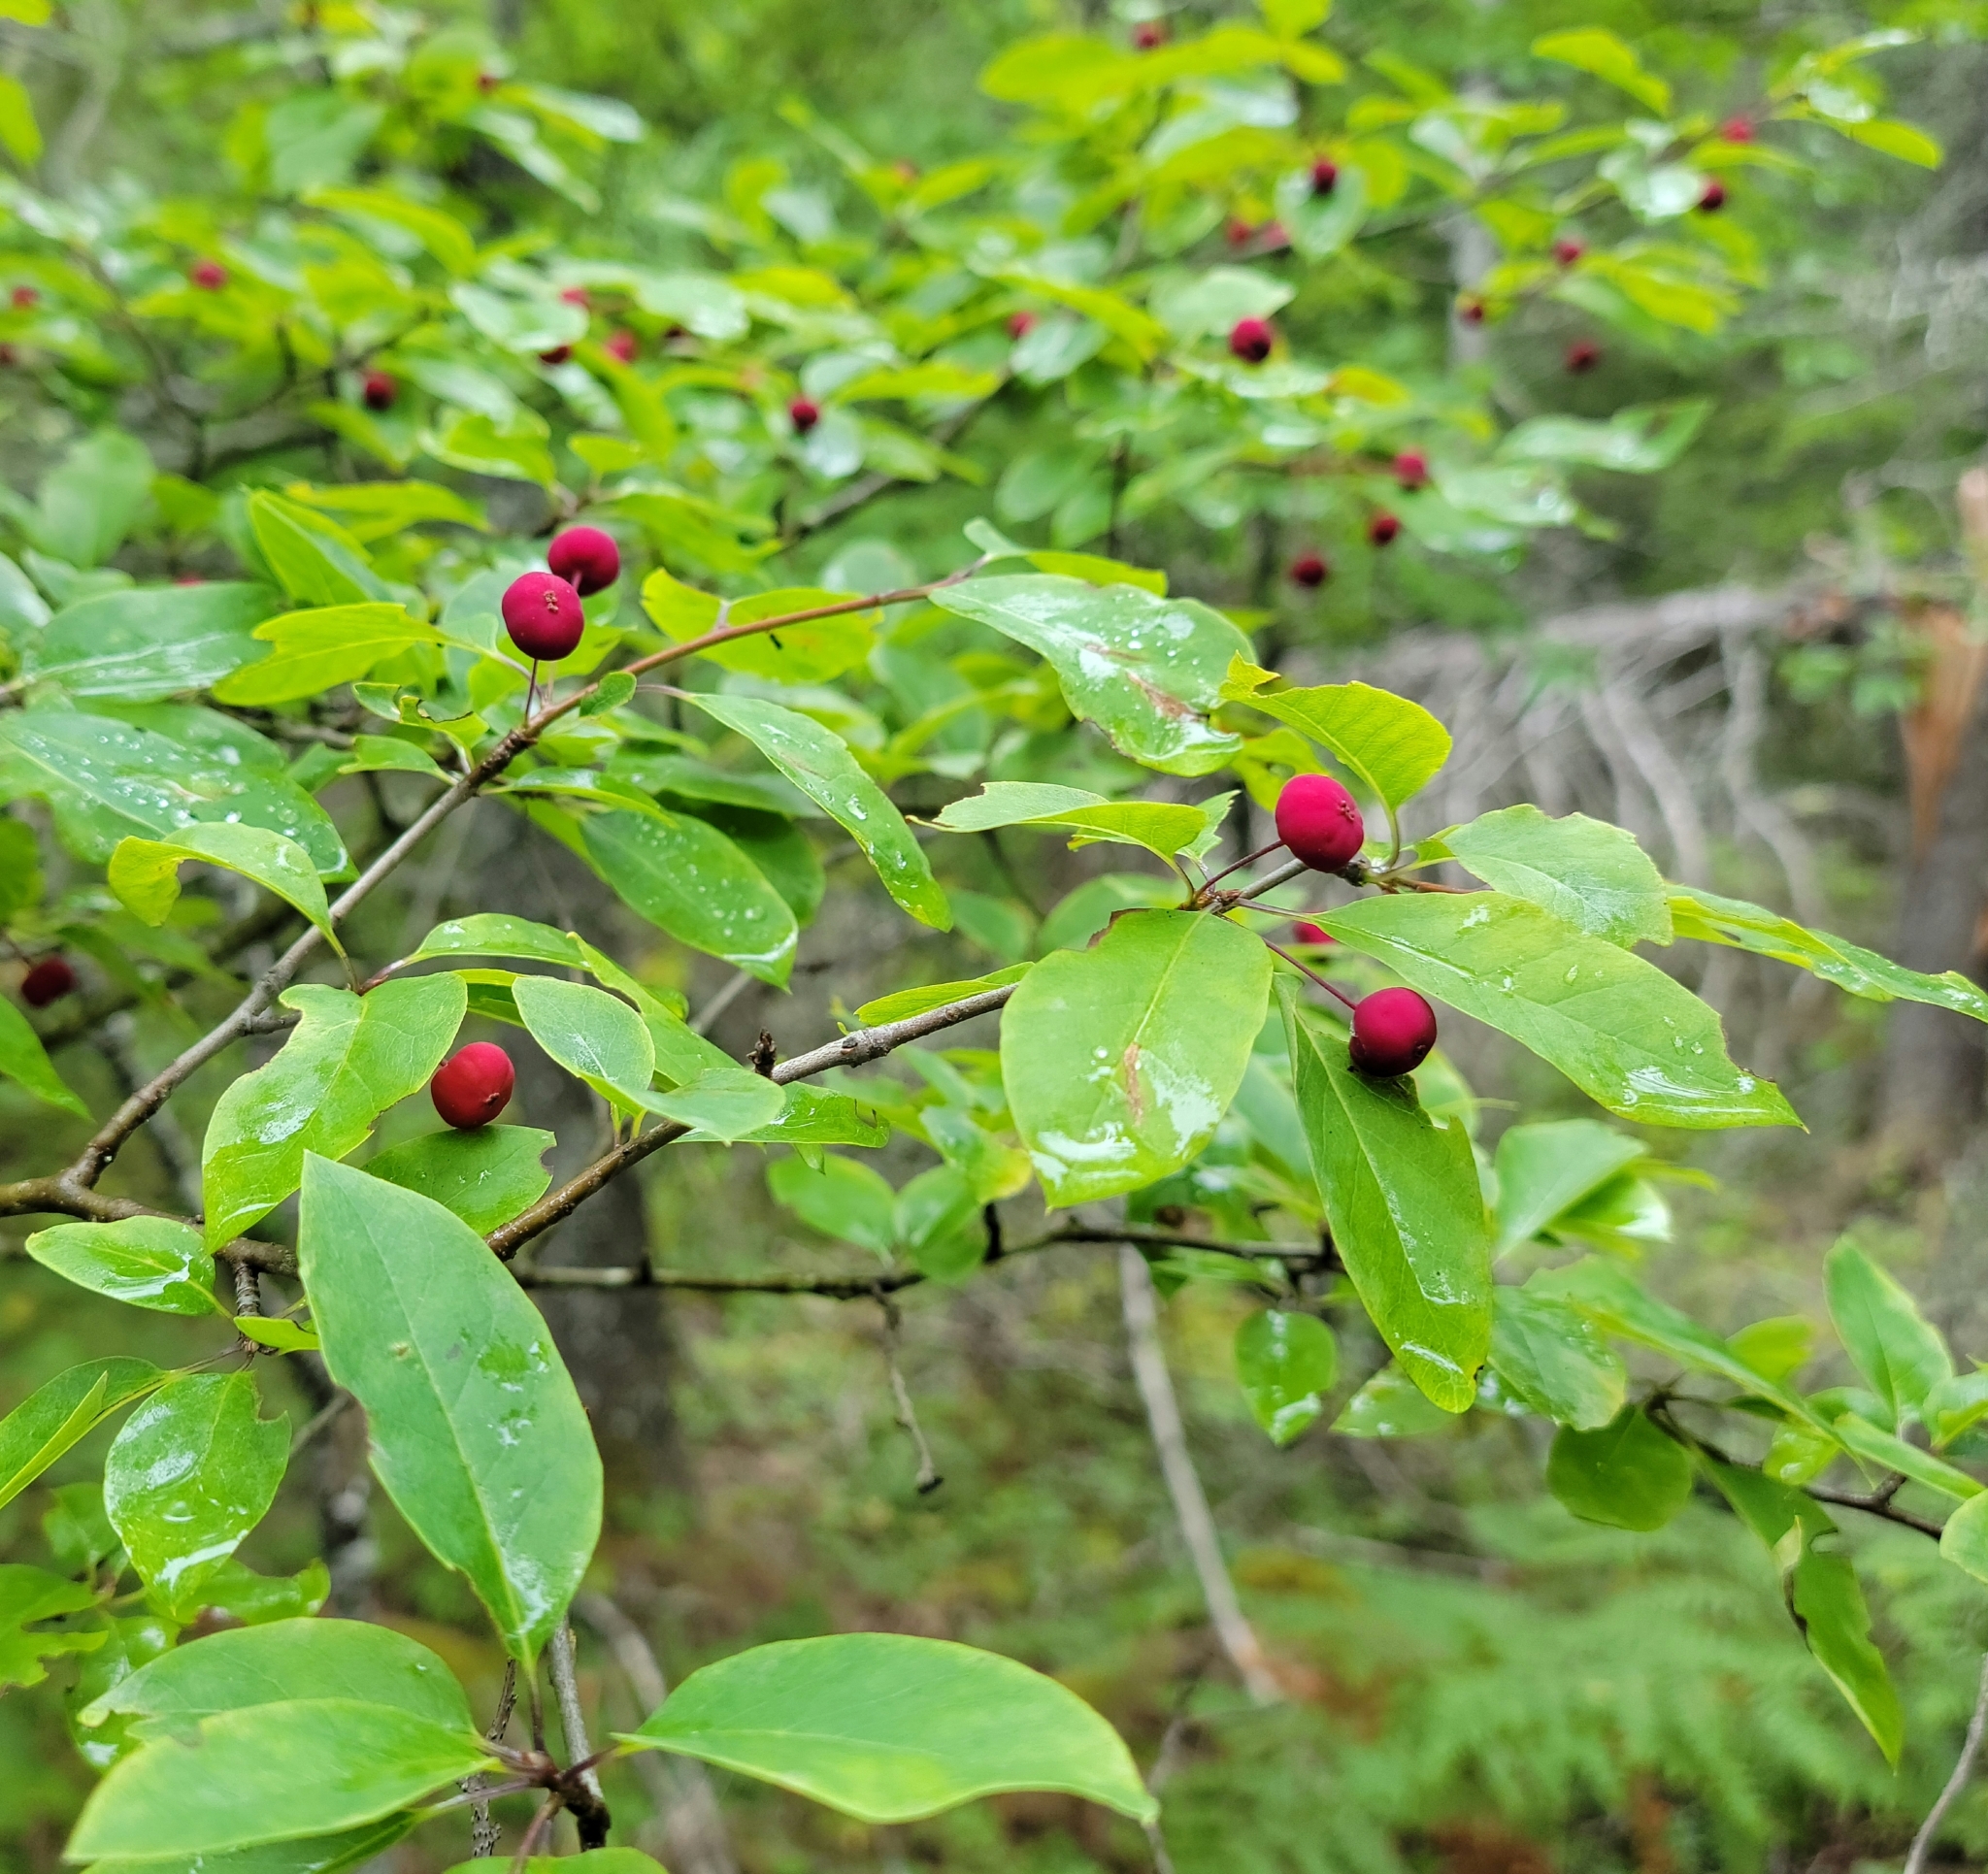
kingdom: Plantae
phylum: Tracheophyta
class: Magnoliopsida
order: Aquifoliales
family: Aquifoliaceae
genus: Ilex
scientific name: Ilex mucronata
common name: Catberry
